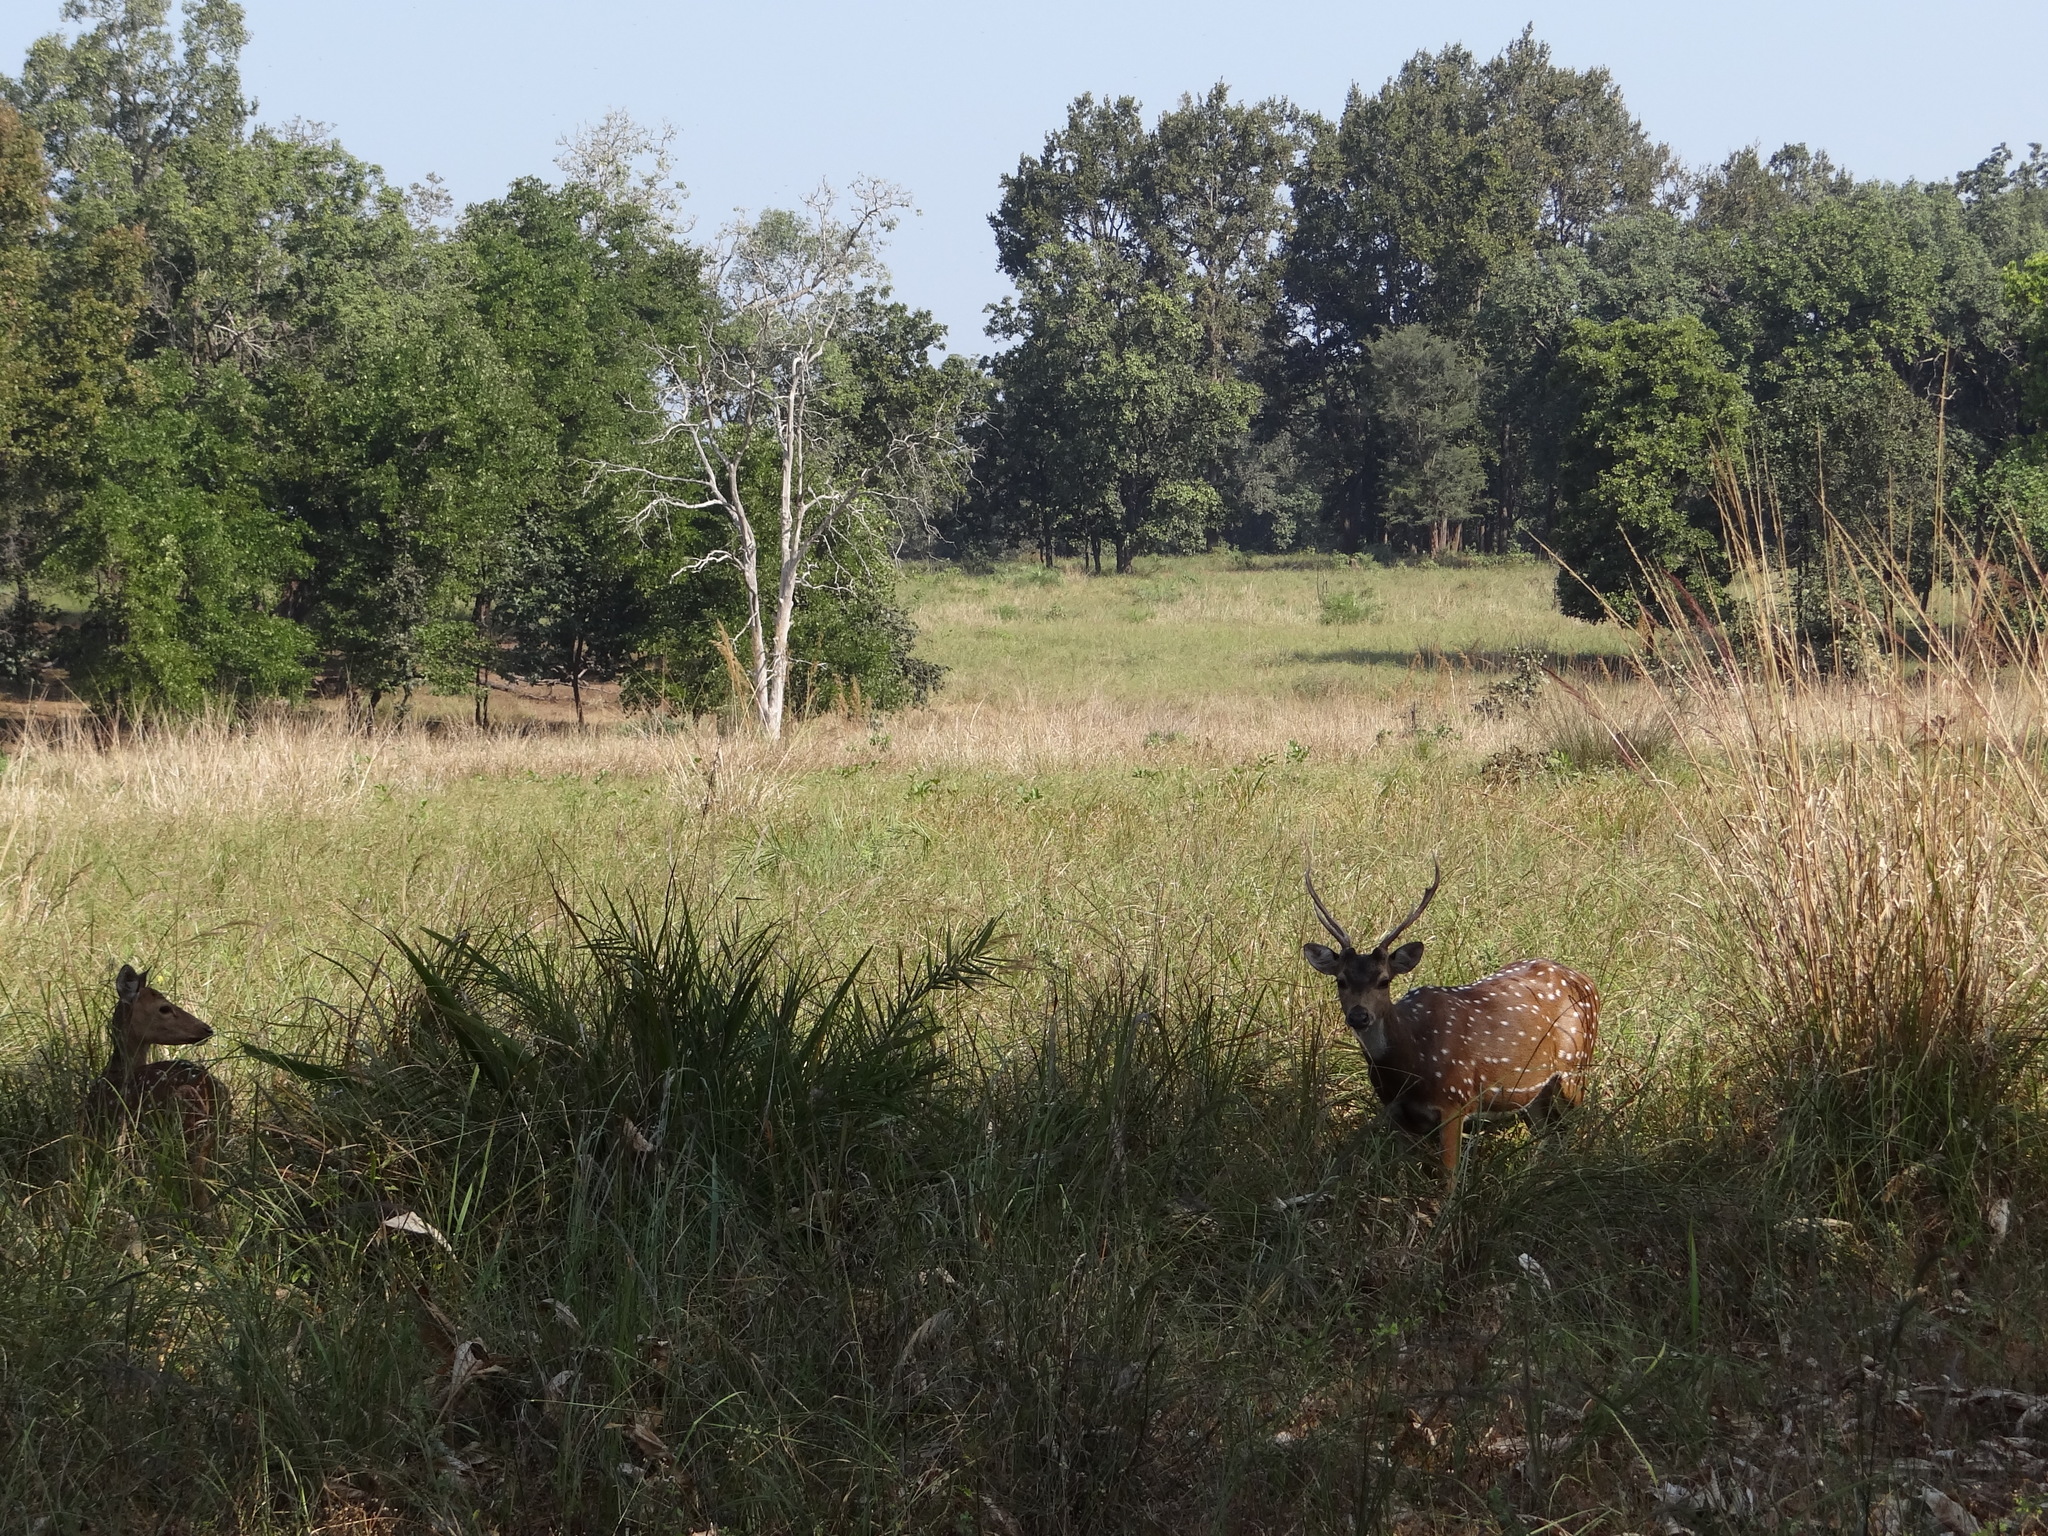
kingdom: Animalia
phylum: Chordata
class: Mammalia
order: Artiodactyla
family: Cervidae
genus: Axis
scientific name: Axis axis
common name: Chital
